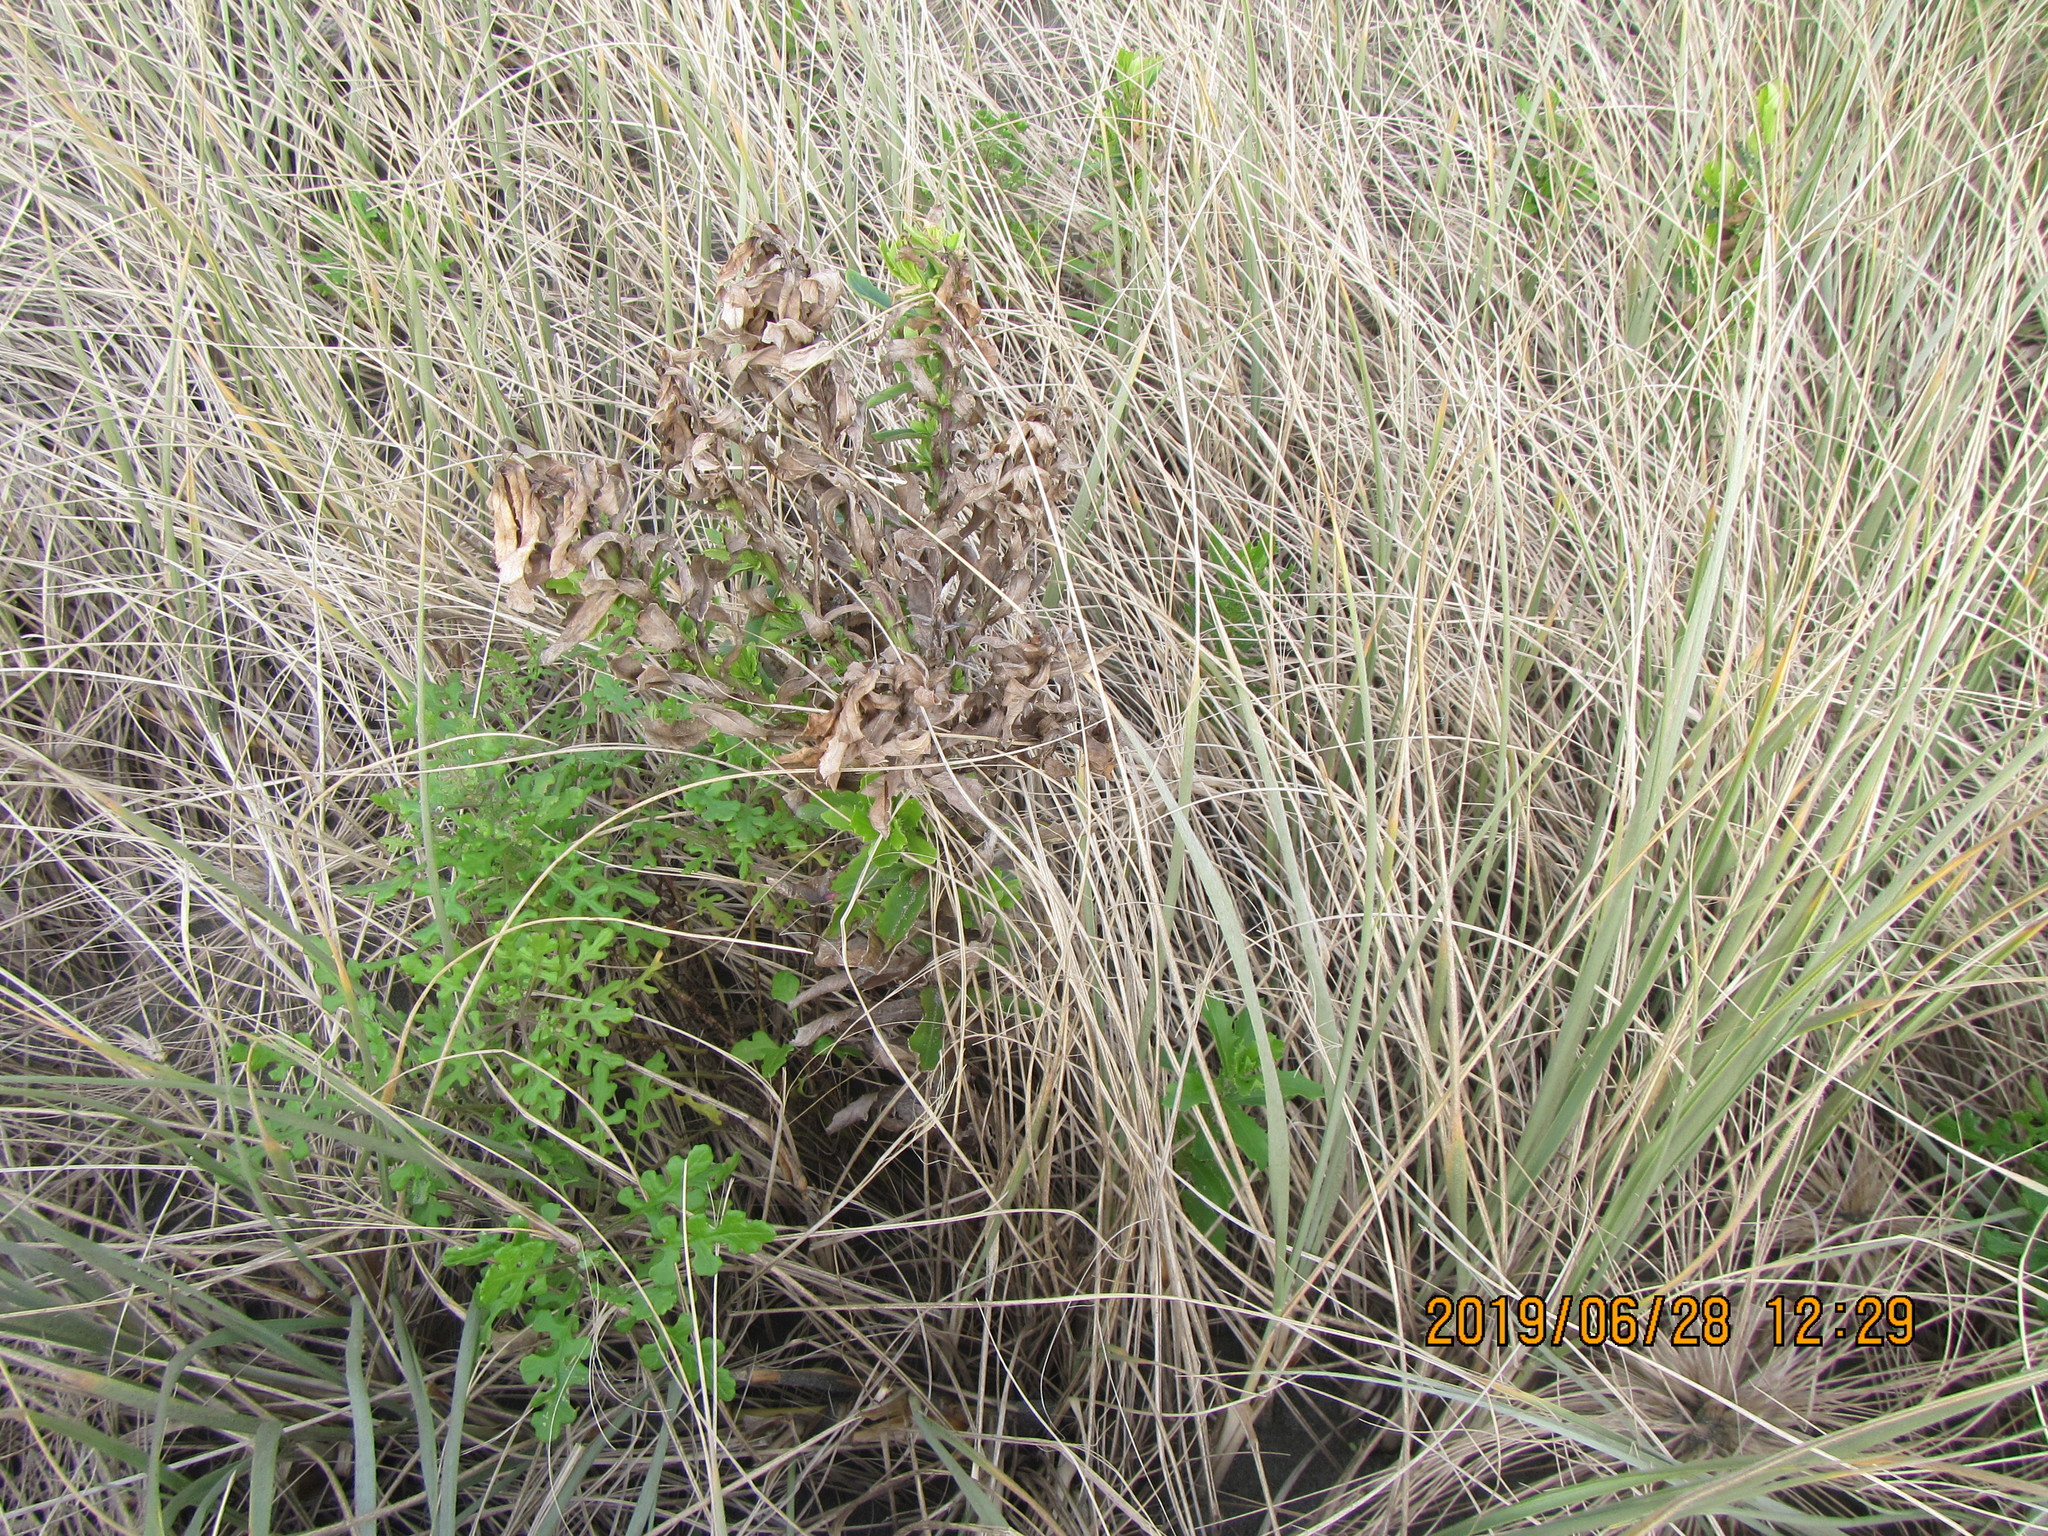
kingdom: Plantae
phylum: Tracheophyta
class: Magnoliopsida
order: Asterales
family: Asteraceae
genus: Senecio
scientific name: Senecio glastifolius
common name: Woad-leaved ragwort
